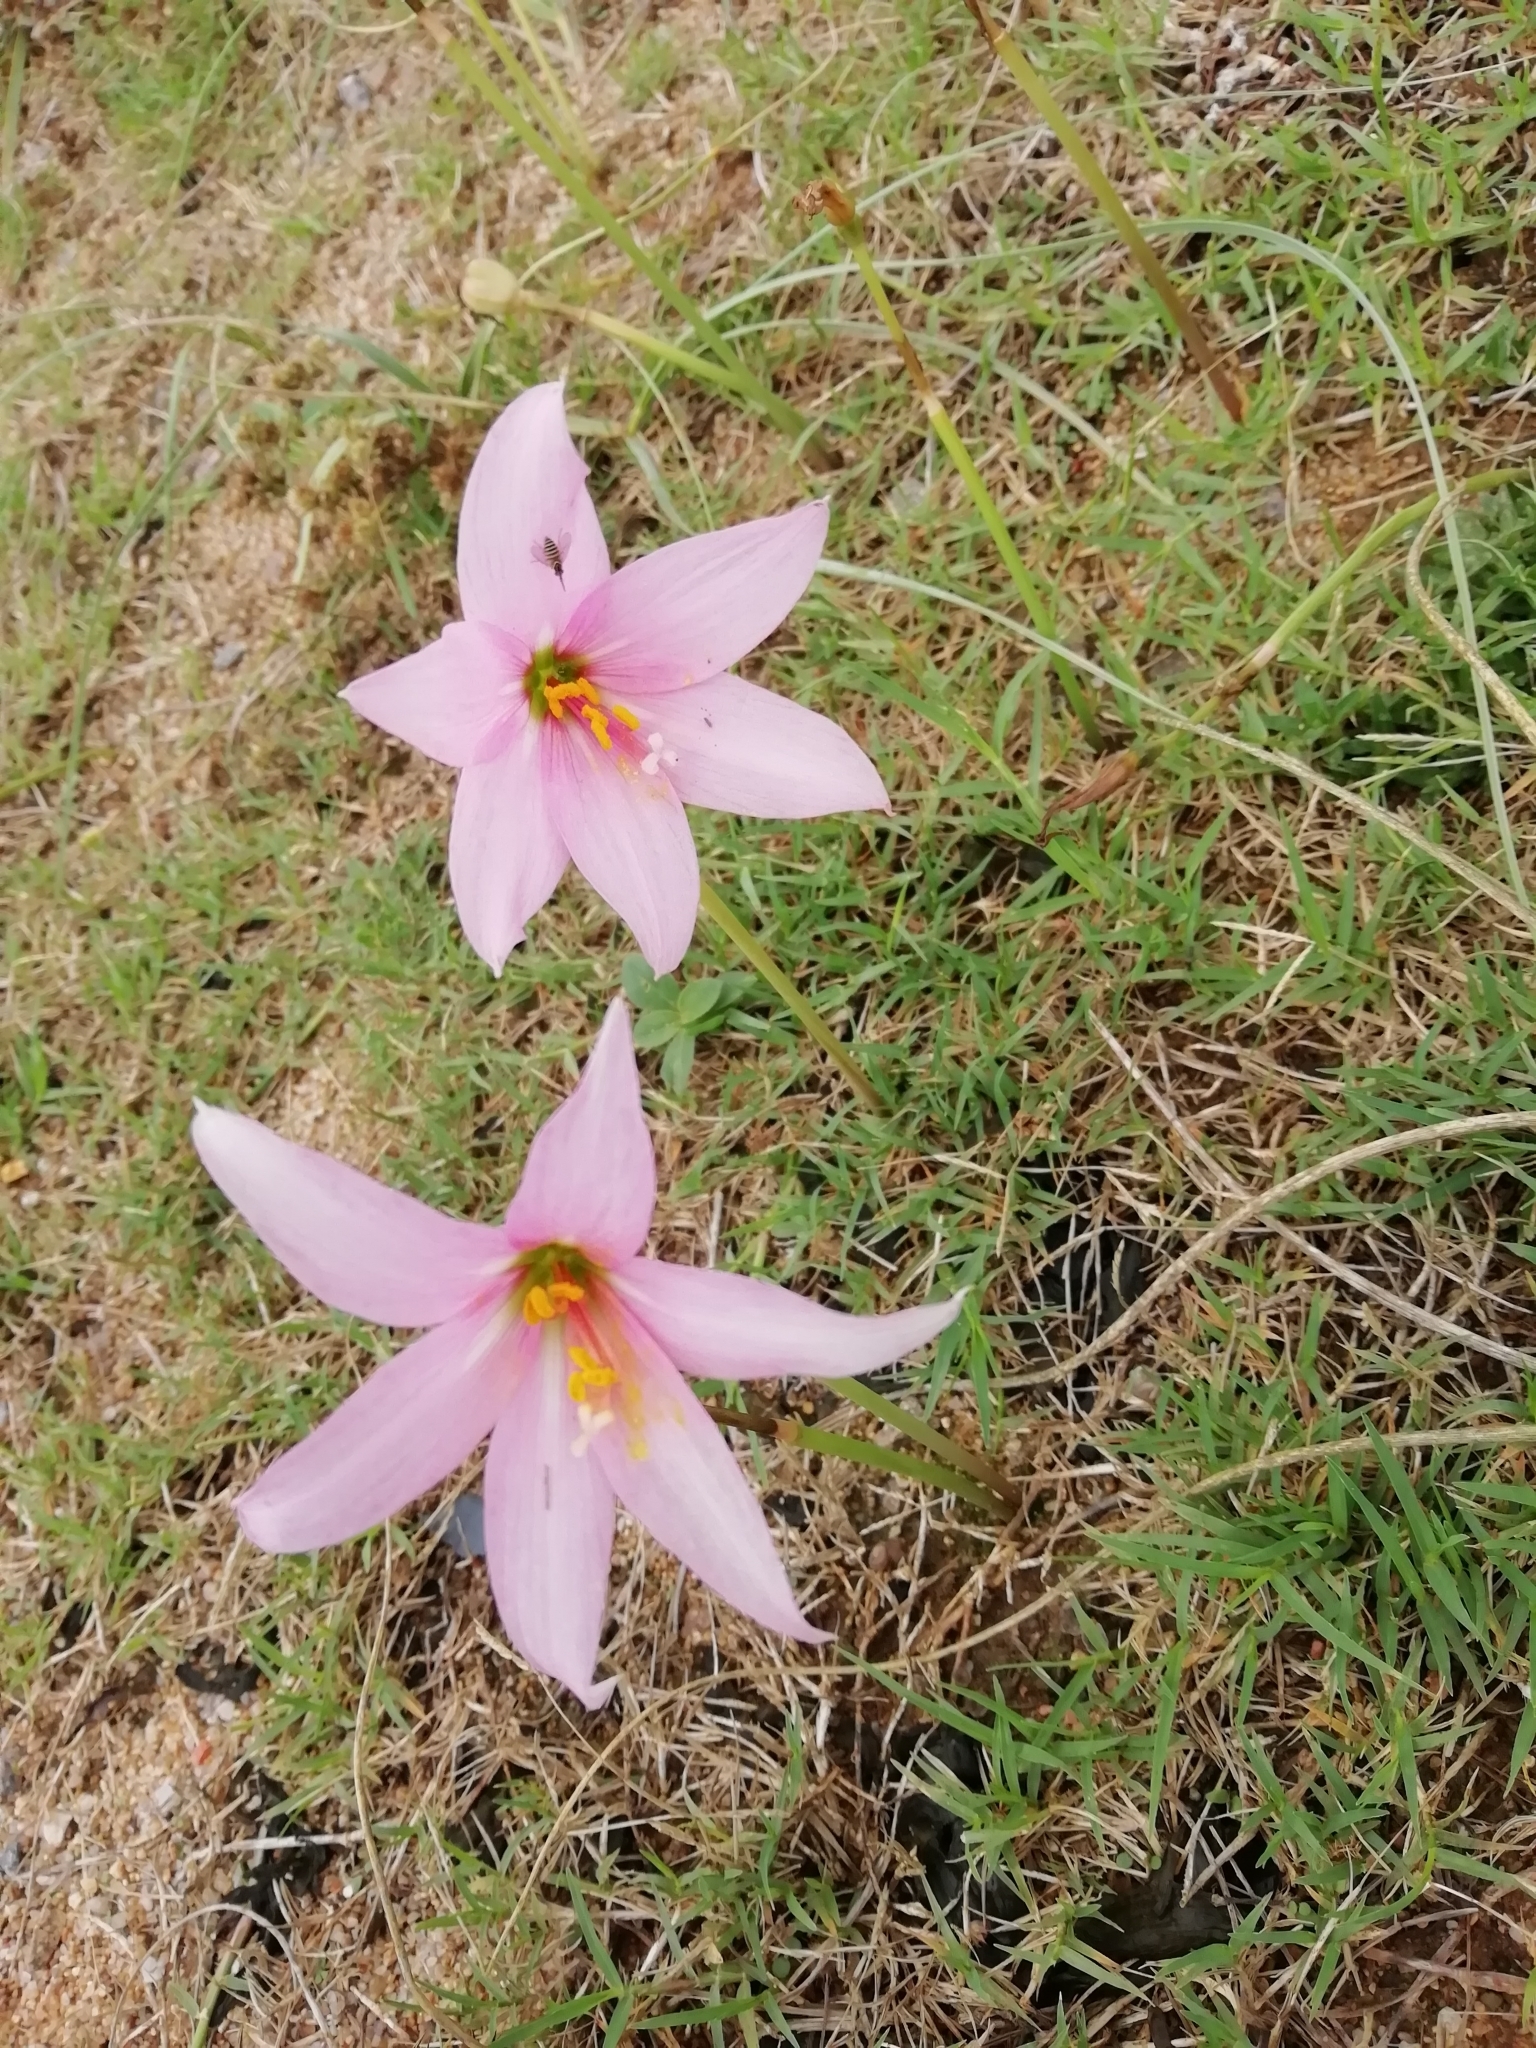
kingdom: Plantae
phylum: Tracheophyta
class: Liliopsida
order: Asparagales
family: Amaryllidaceae
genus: Zephyranthes
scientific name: Zephyranthes gracilifolia
